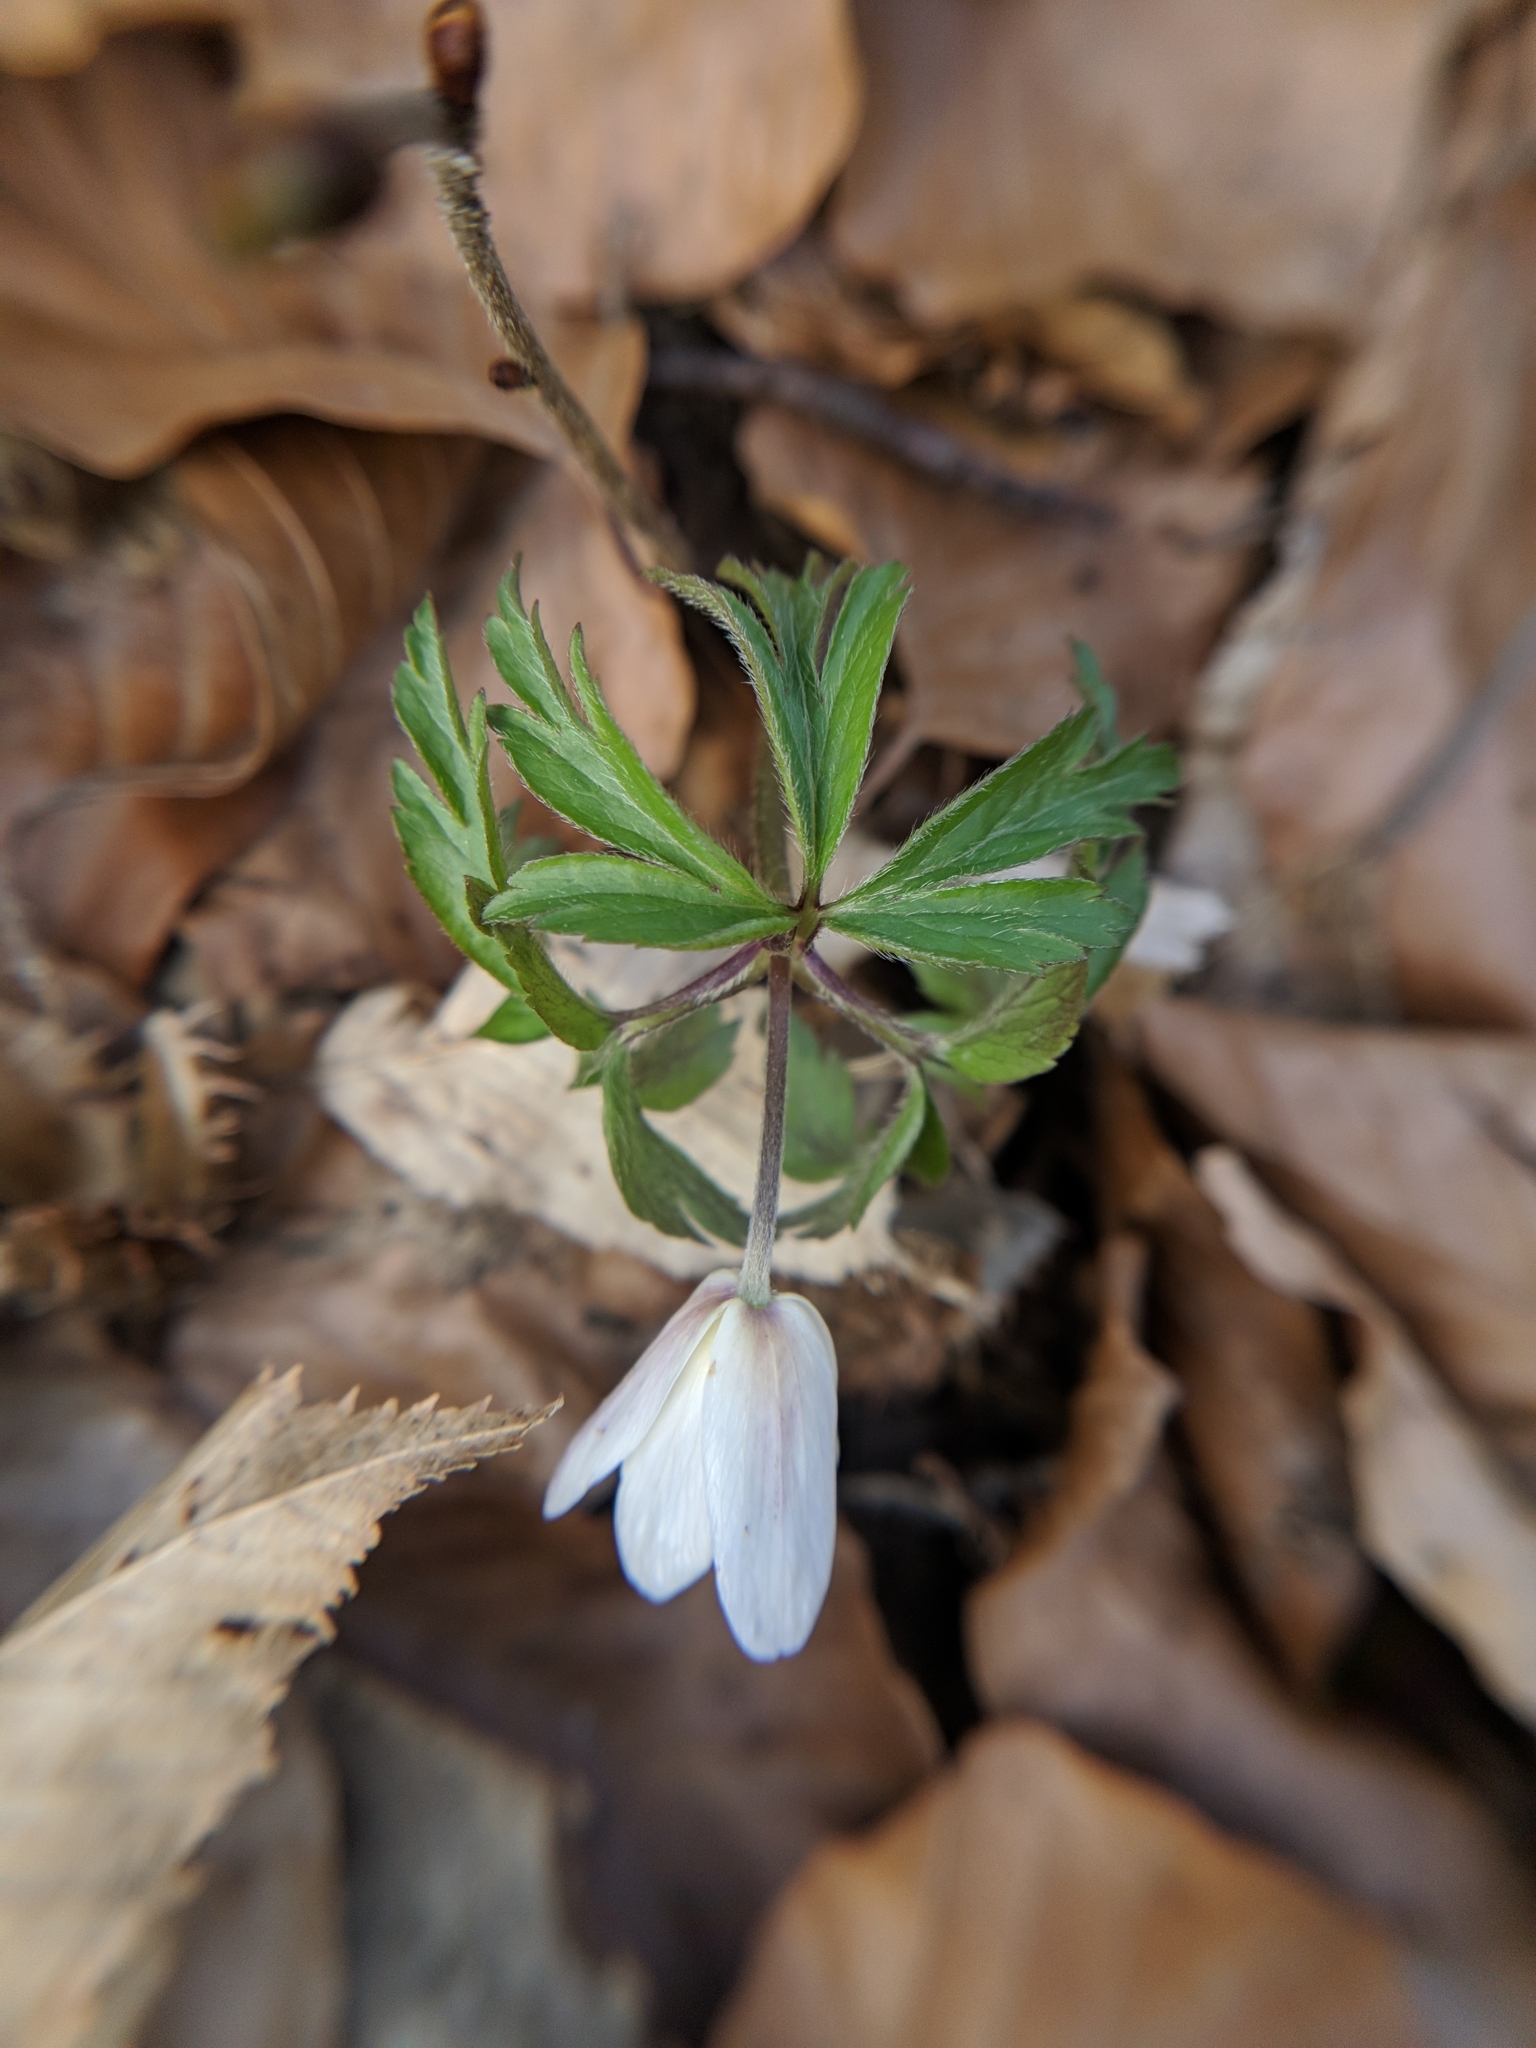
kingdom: Plantae
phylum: Tracheophyta
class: Magnoliopsida
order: Ranunculales
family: Ranunculaceae
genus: Anemone
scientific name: Anemone nemorosa
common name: Wood anemone
